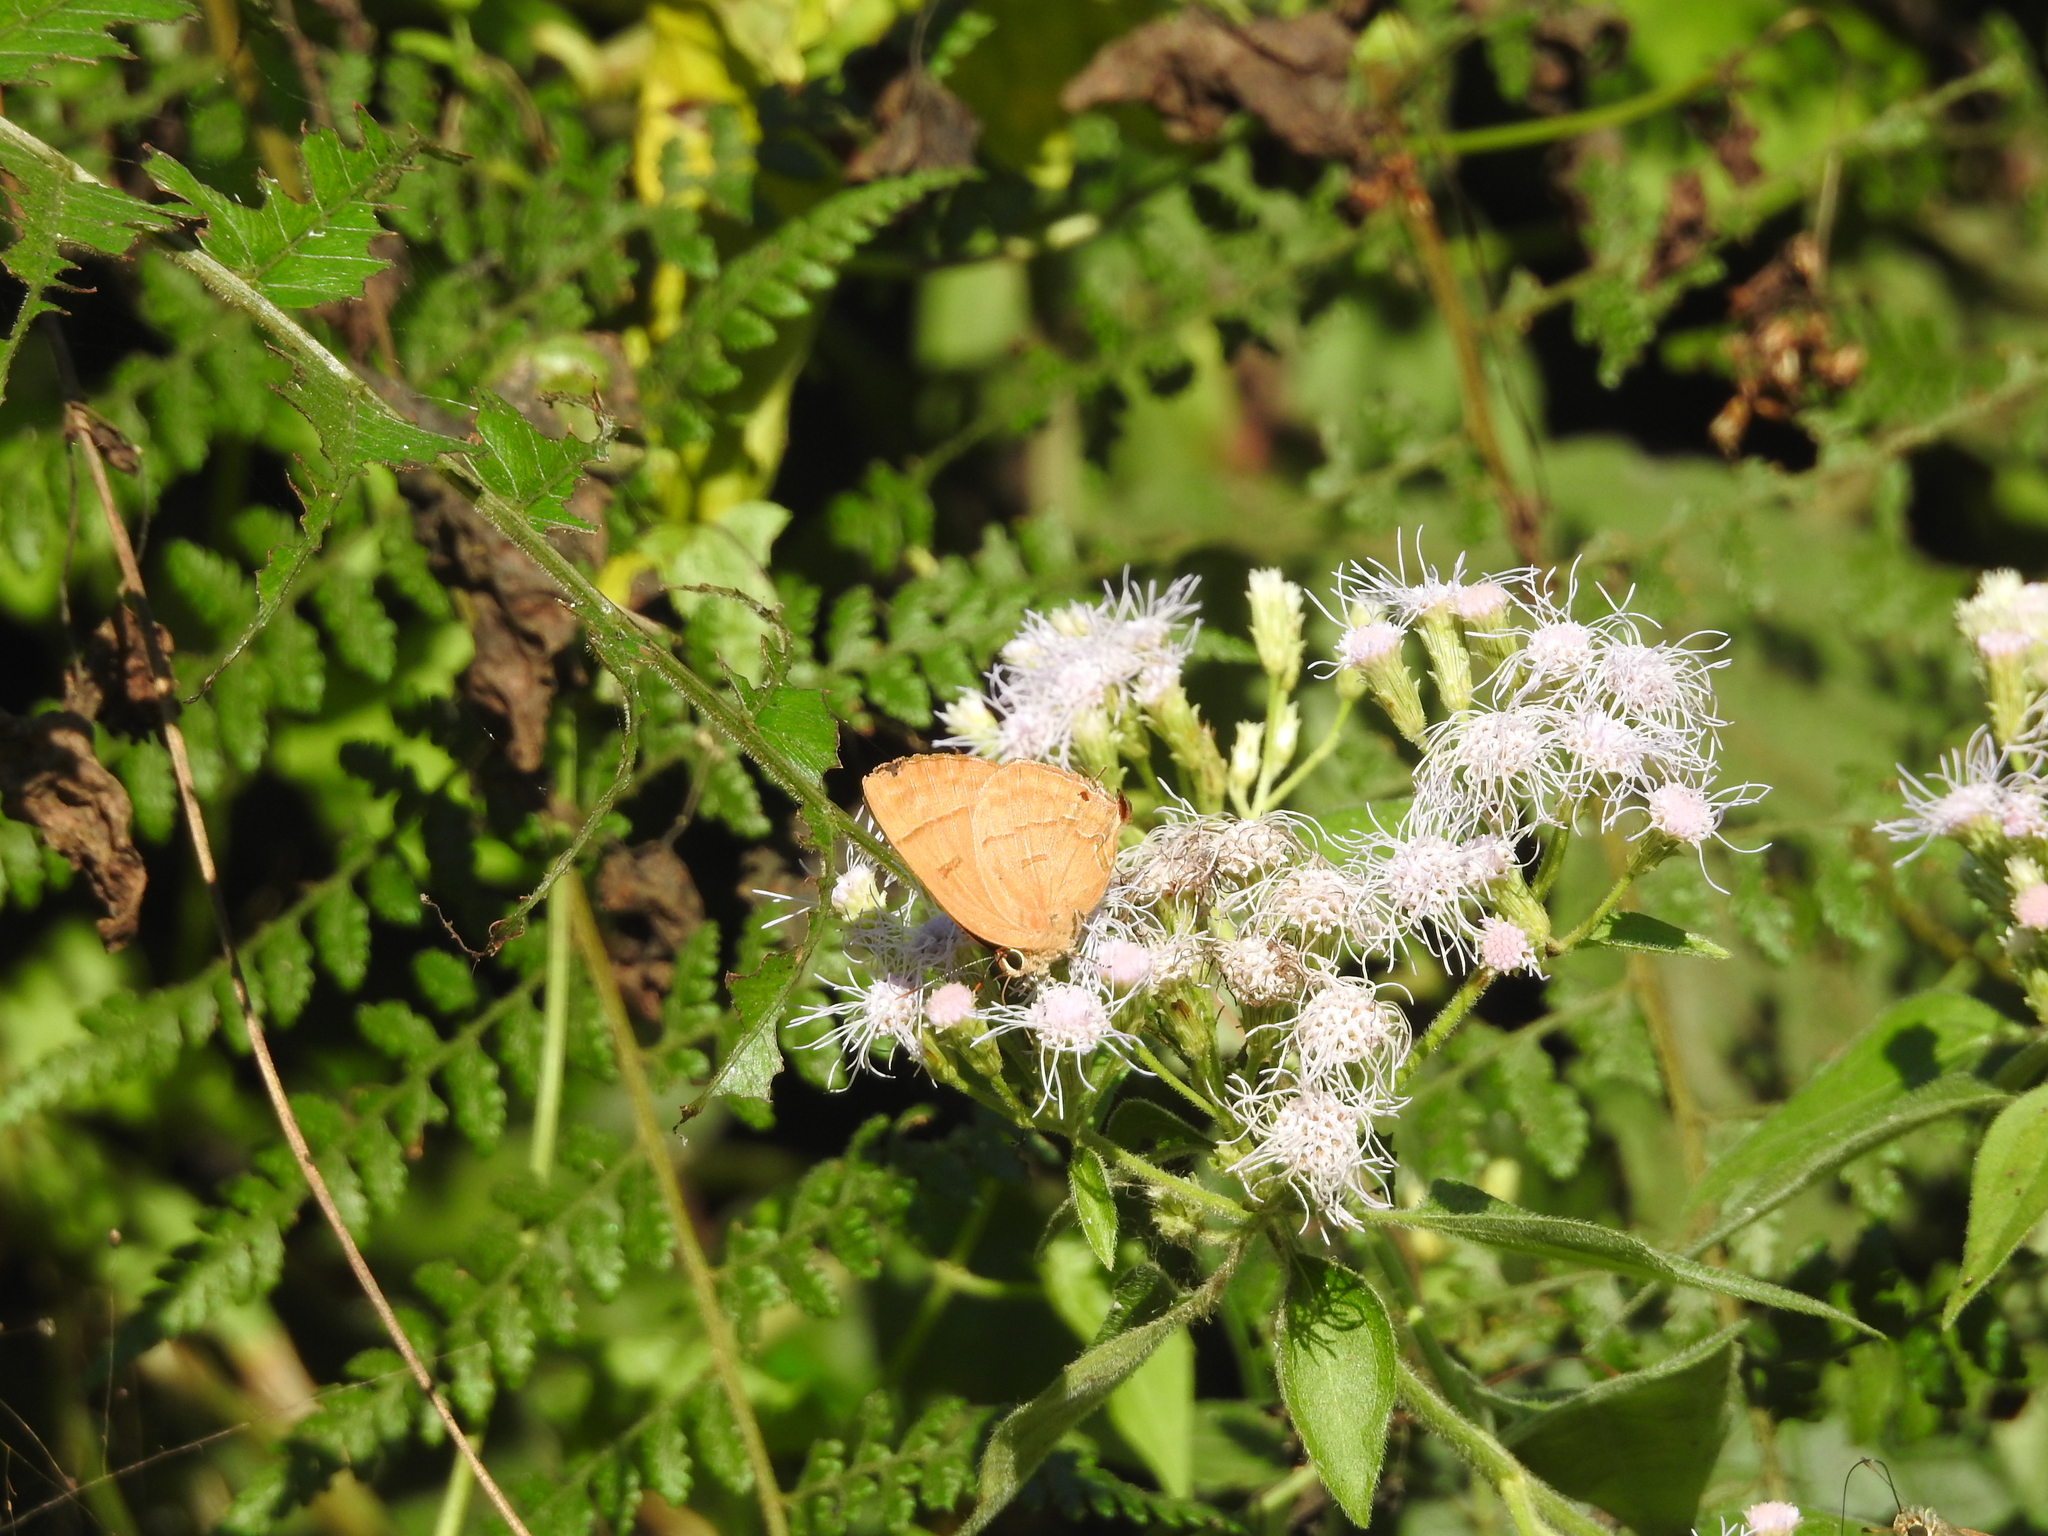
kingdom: Animalia
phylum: Arthropoda
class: Insecta
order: Lepidoptera
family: Lycaenidae
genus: Rapala
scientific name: Rapala pheretima
